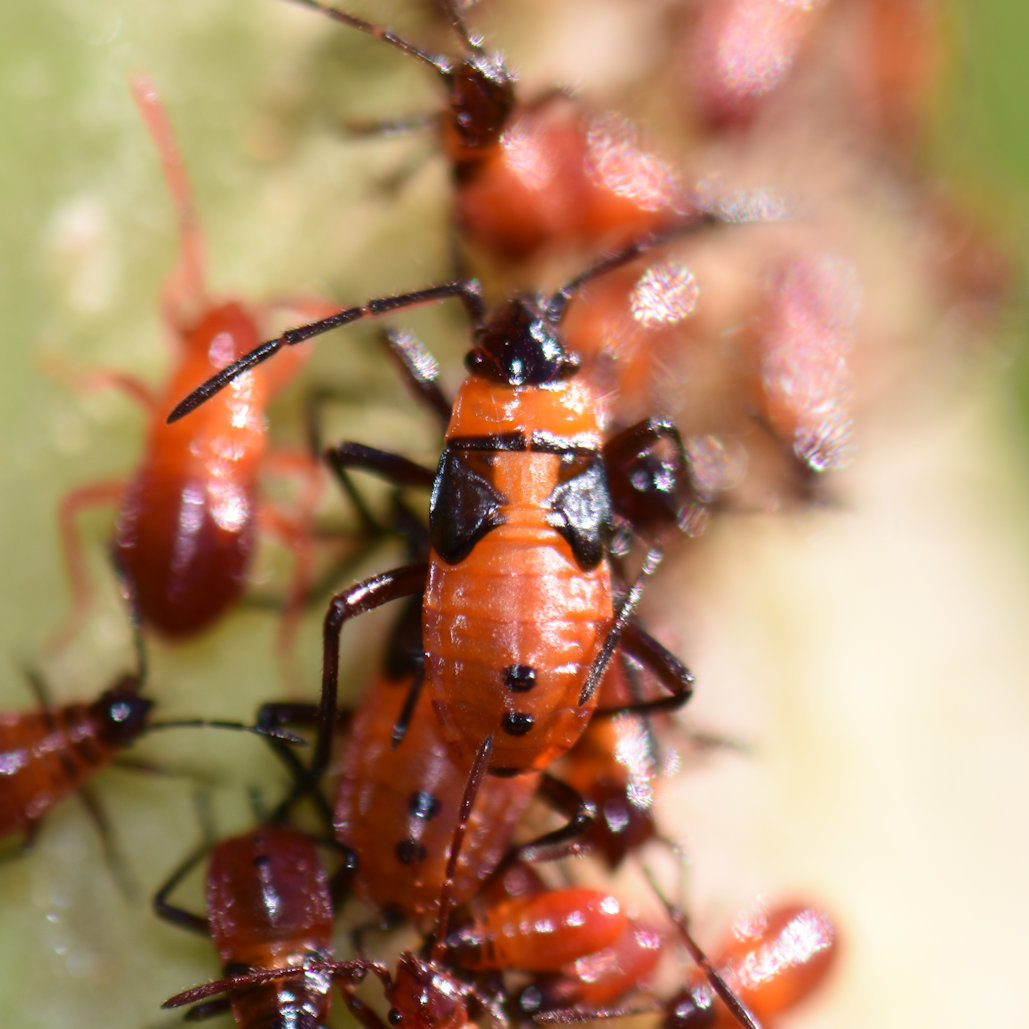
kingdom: Animalia
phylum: Arthropoda
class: Insecta
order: Hemiptera
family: Lygaeidae
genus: Oncopeltus
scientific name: Oncopeltus fasciatus
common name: Large milkweed bug
